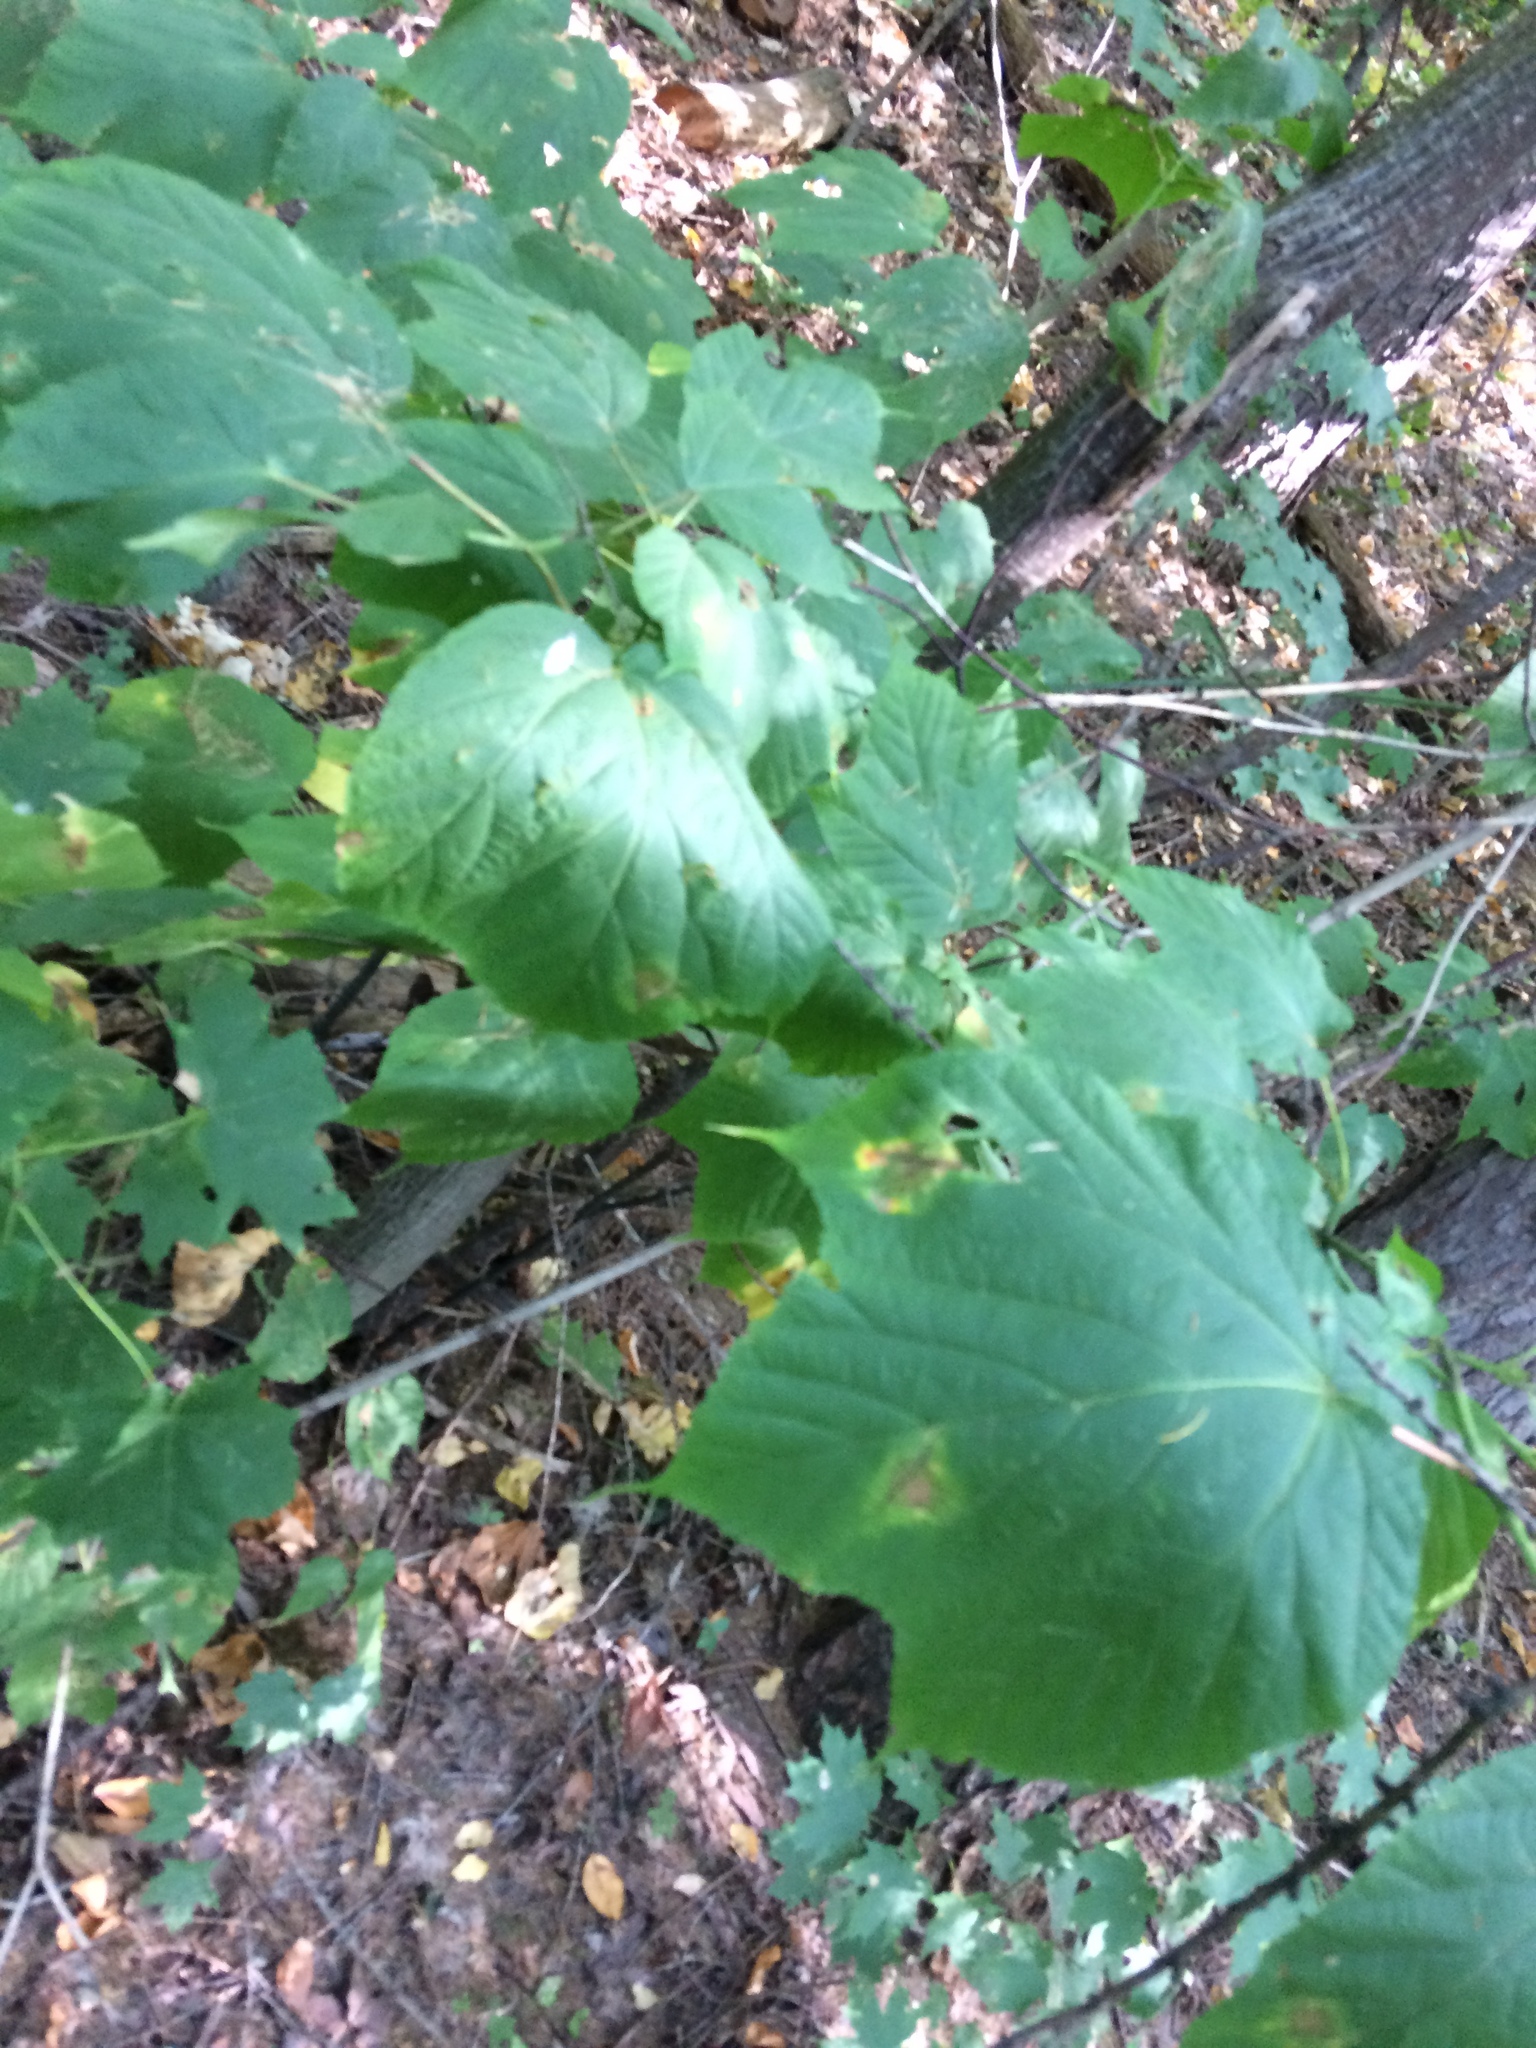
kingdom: Plantae
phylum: Tracheophyta
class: Magnoliopsida
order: Sapindales
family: Sapindaceae
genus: Acer
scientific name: Acer pensylvanicum
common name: Moosewood
